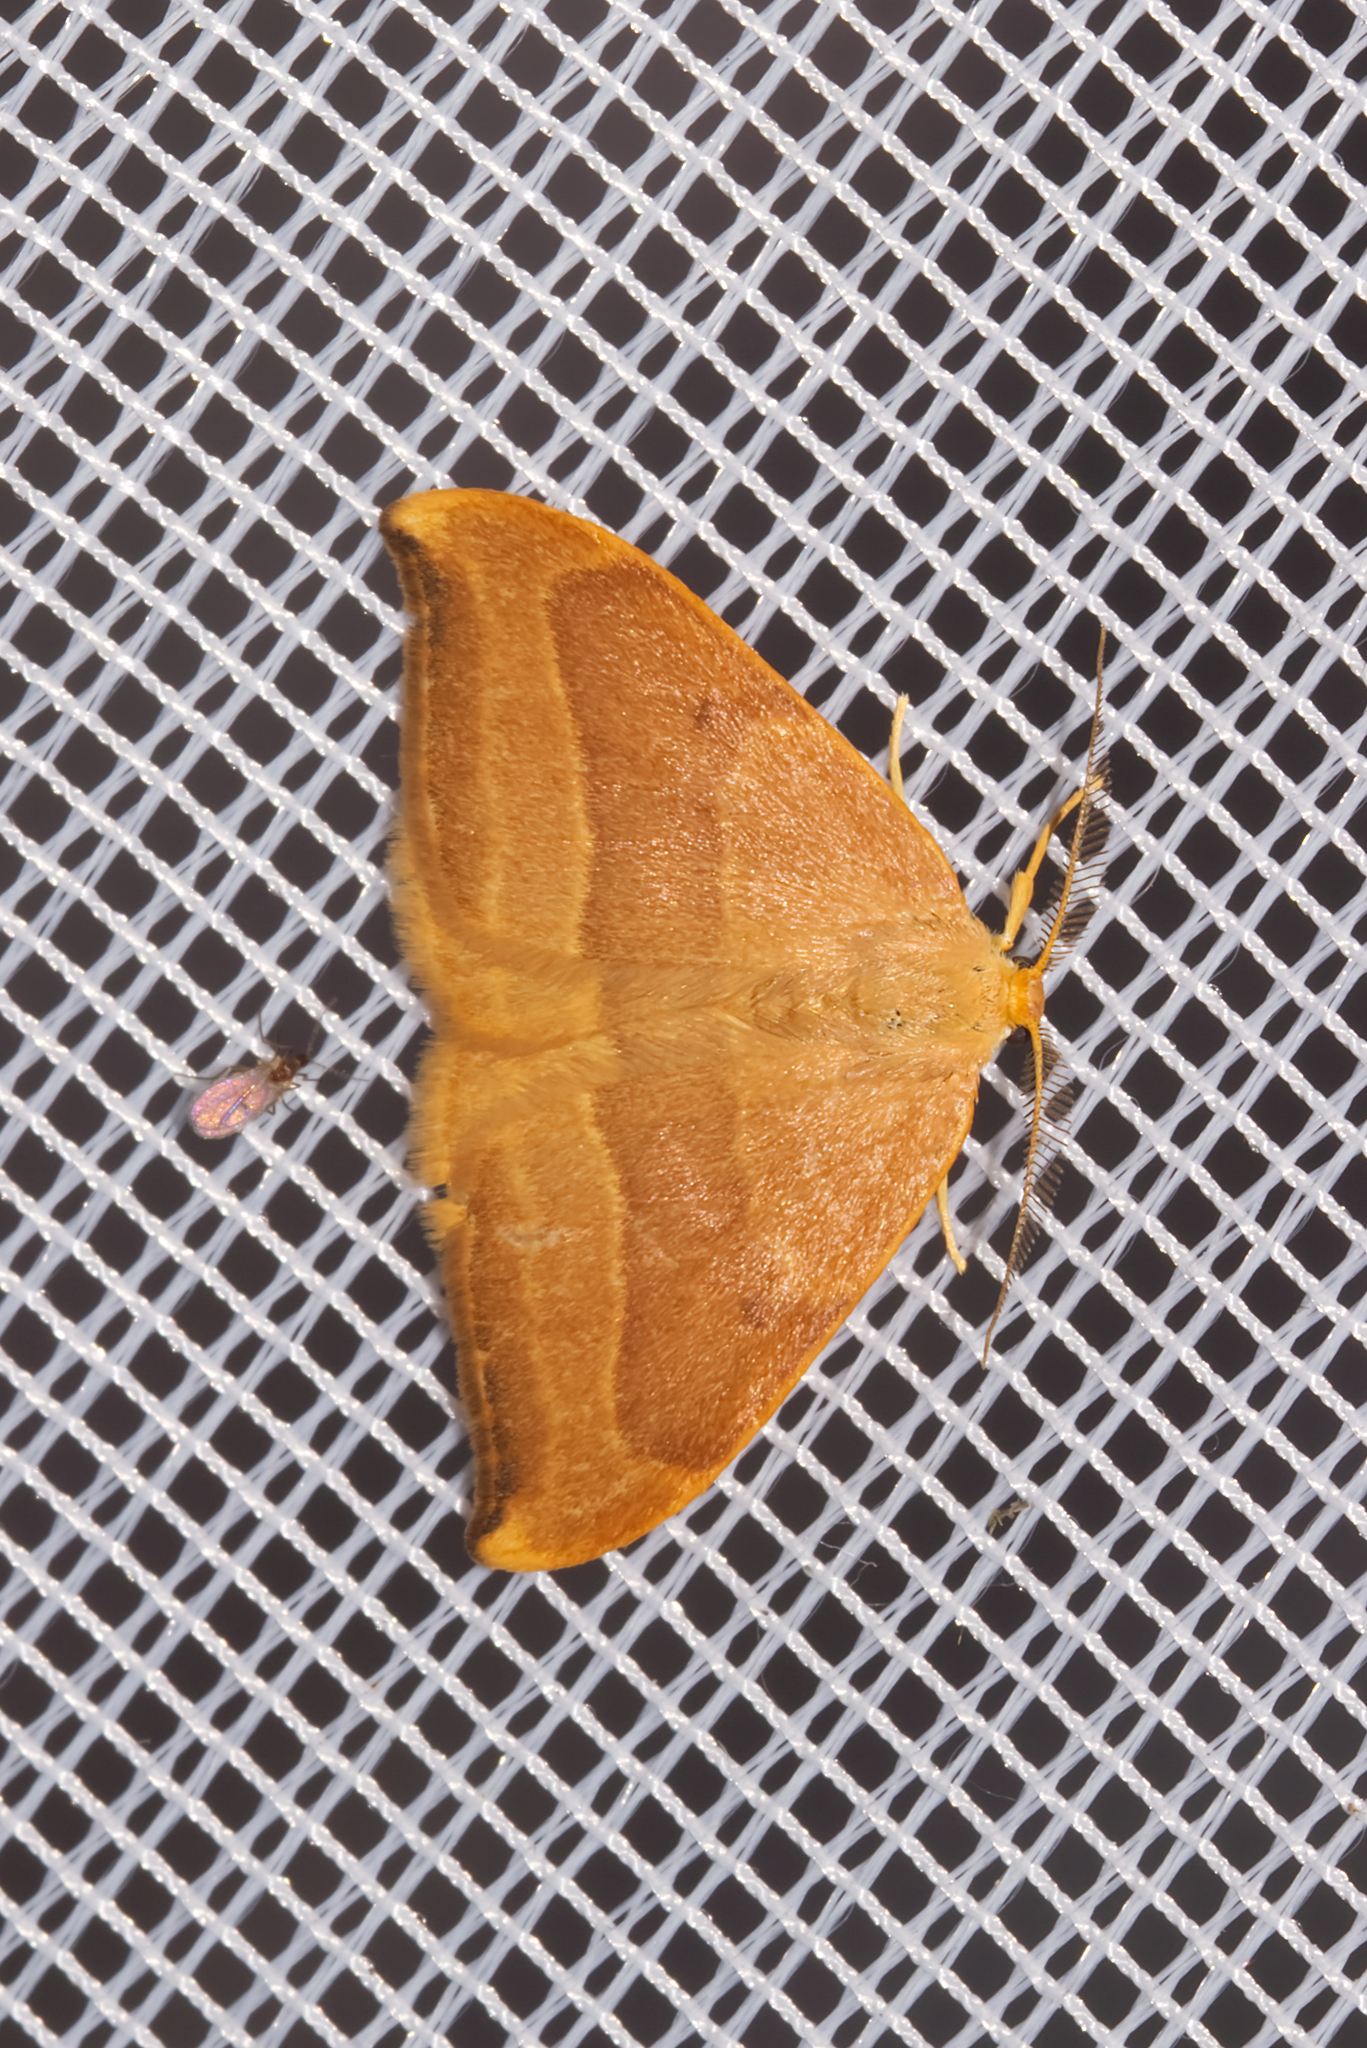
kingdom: Animalia
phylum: Arthropoda
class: Insecta
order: Lepidoptera
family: Drepanidae
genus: Watsonalla
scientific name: Watsonalla cultraria
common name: Barred hook-tip
